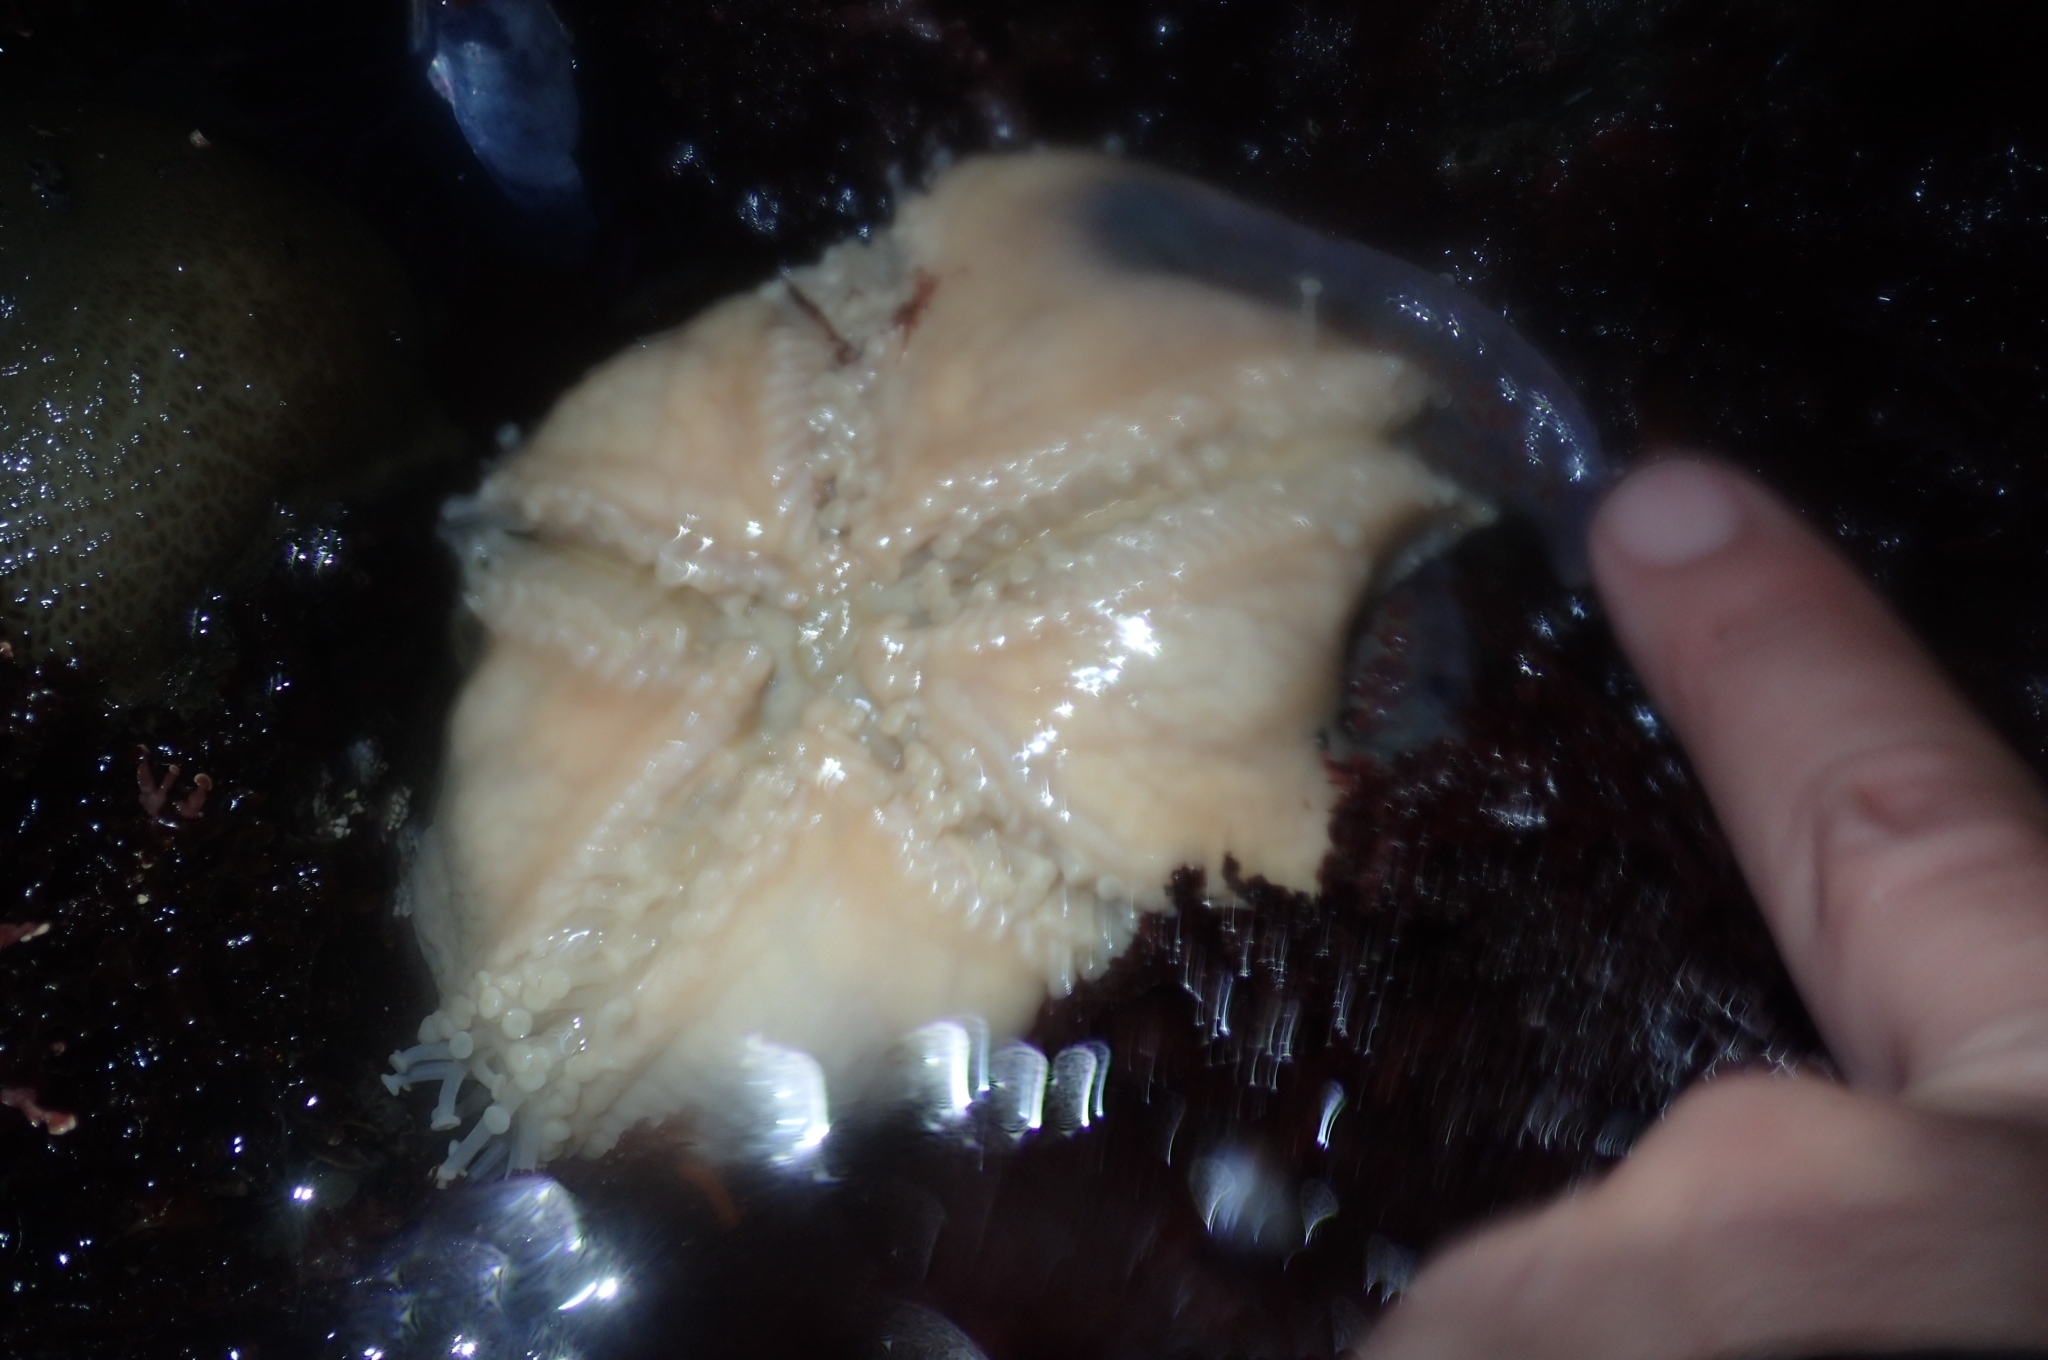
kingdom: Animalia
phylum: Echinodermata
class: Asteroidea
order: Valvatida
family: Asteropseidae
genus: Dermasterias
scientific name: Dermasterias imbricata
